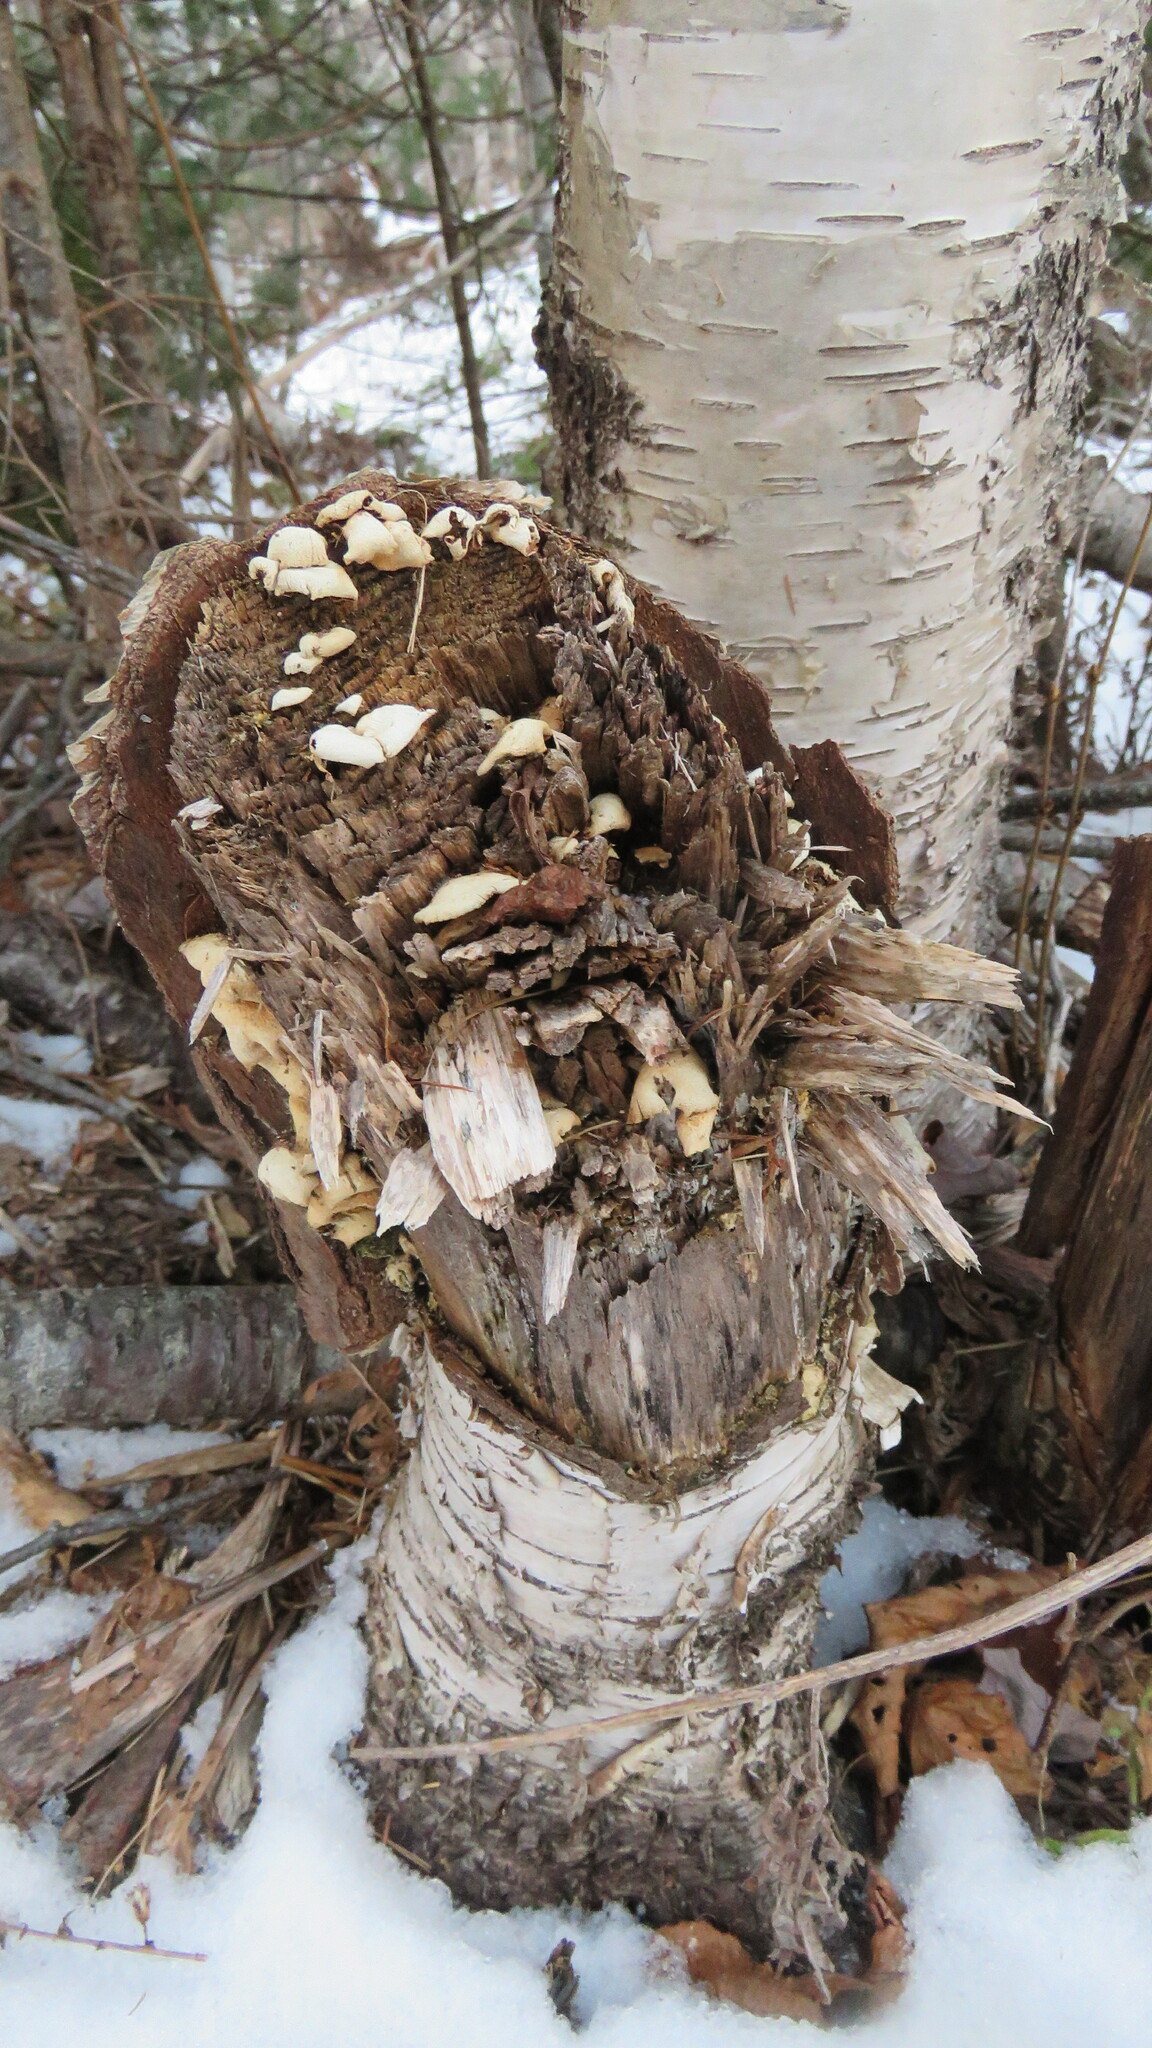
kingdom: Fungi
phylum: Basidiomycota
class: Agaricomycetes
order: Agaricales
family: Mycenaceae
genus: Panellus
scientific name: Panellus stipticus
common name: Bitter oysterling
